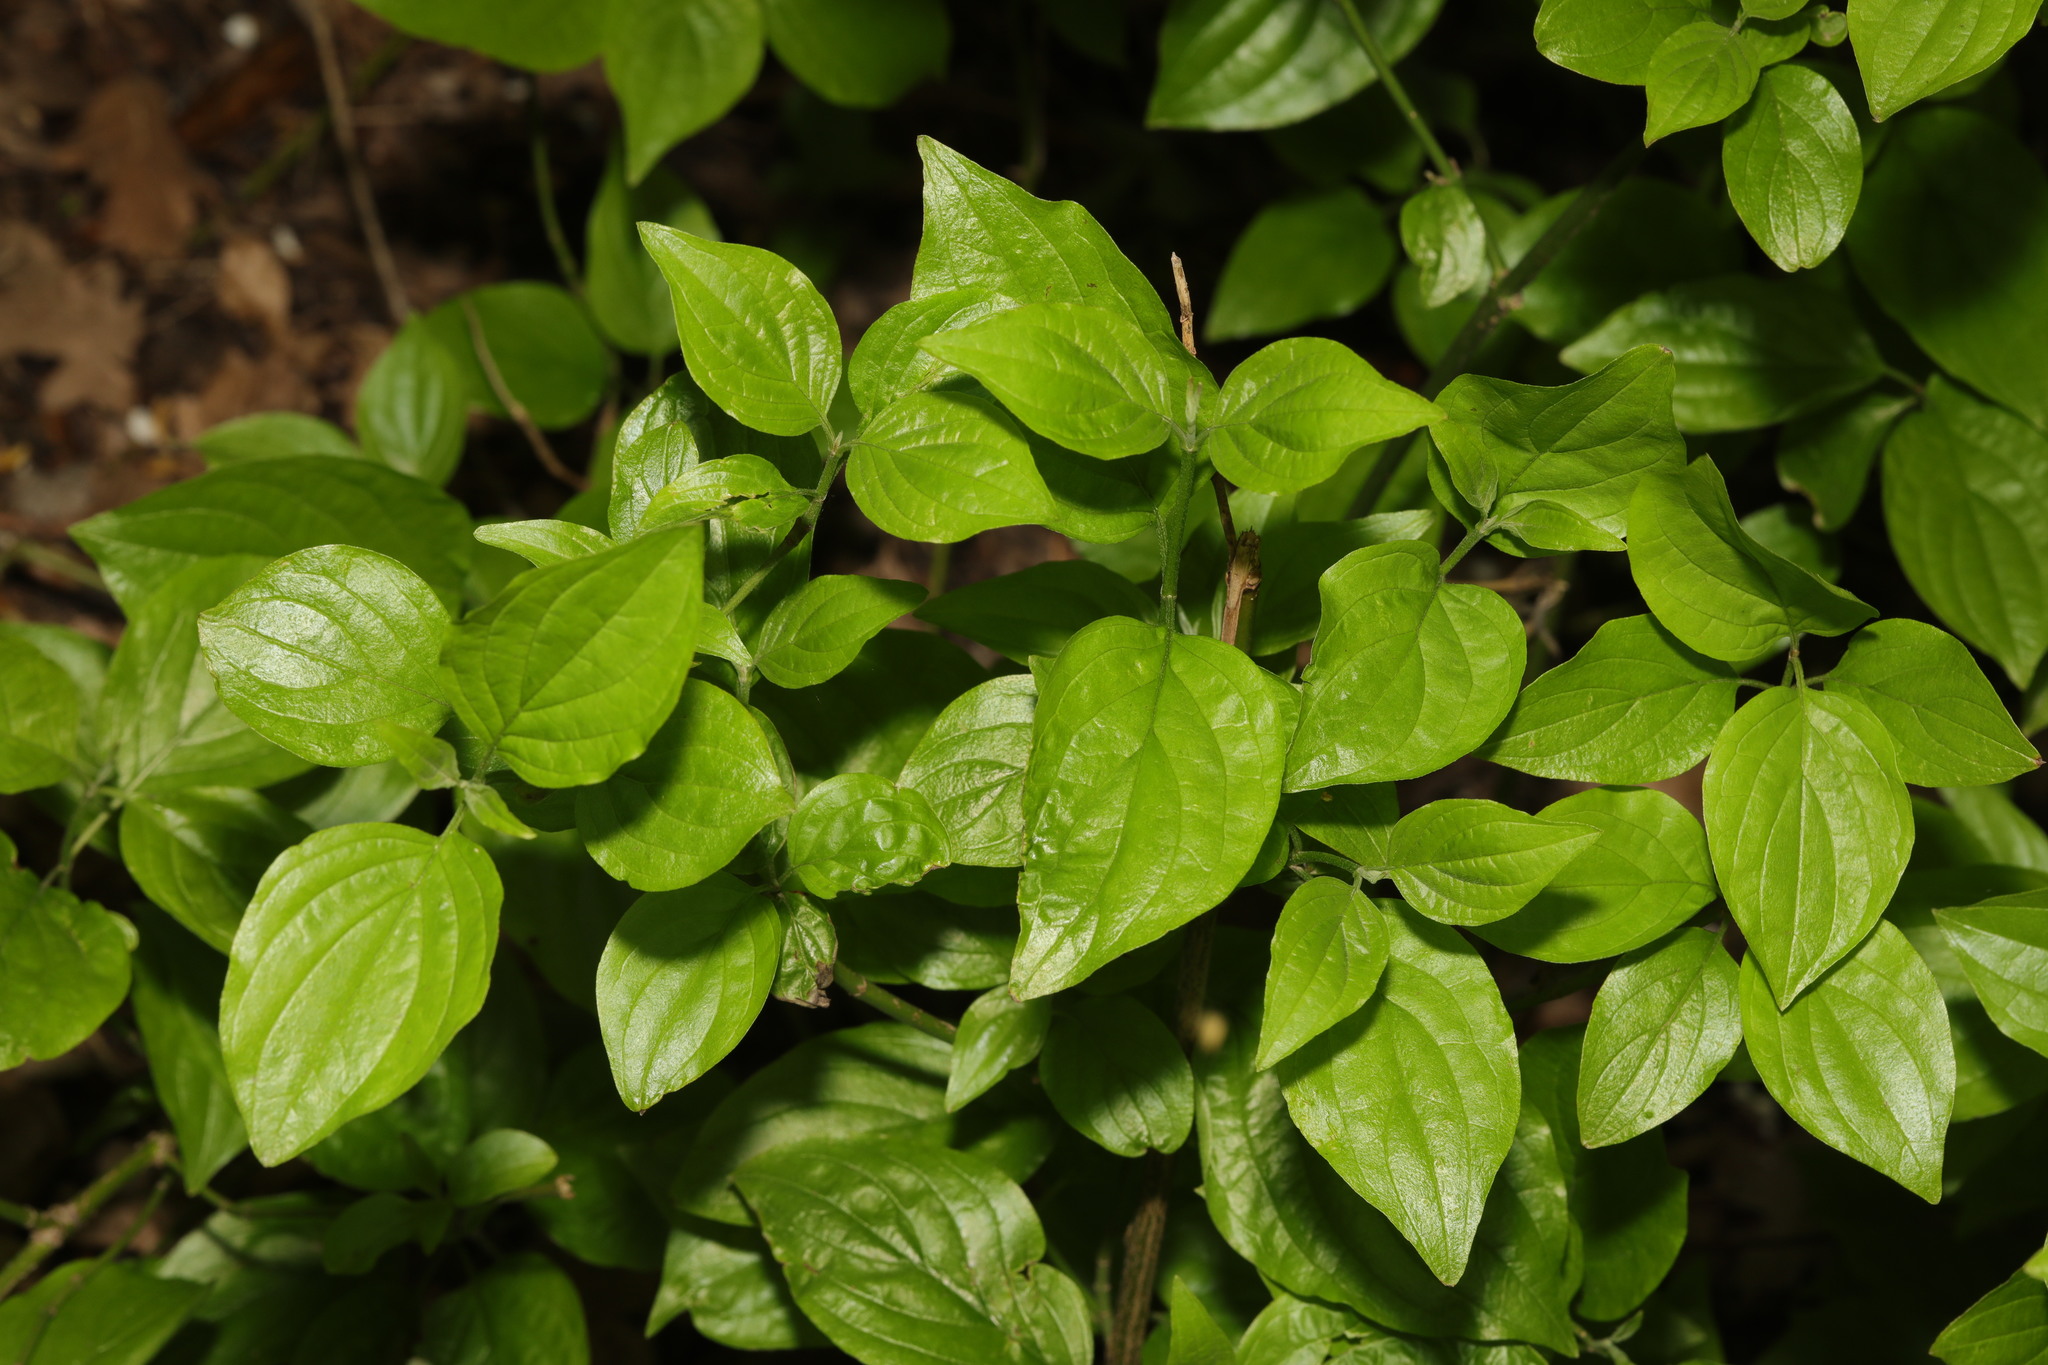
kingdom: Plantae
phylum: Tracheophyta
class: Magnoliopsida
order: Cornales
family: Cornaceae
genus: Cornus
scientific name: Cornus sanguinea
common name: Dogwood
